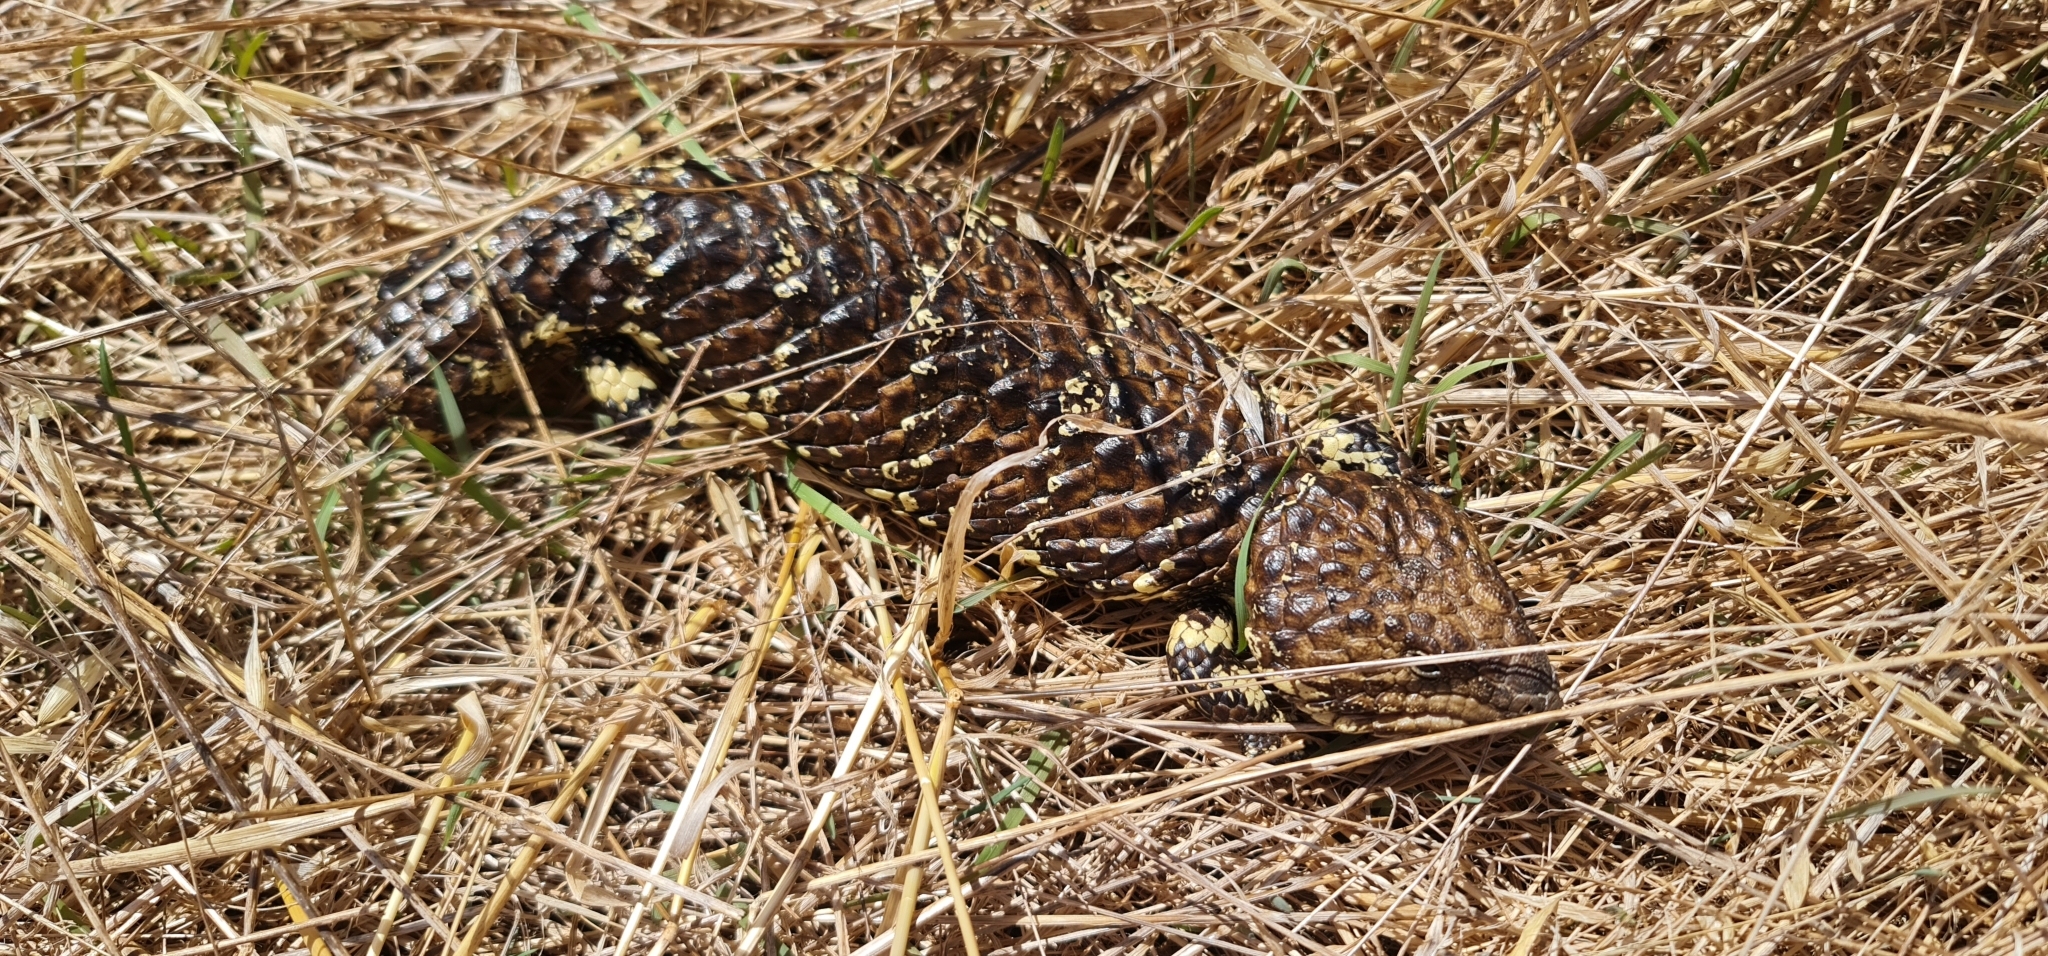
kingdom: Animalia
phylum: Chordata
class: Squamata
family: Scincidae
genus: Tiliqua
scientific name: Tiliqua rugosa
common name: Pinecone lizard
